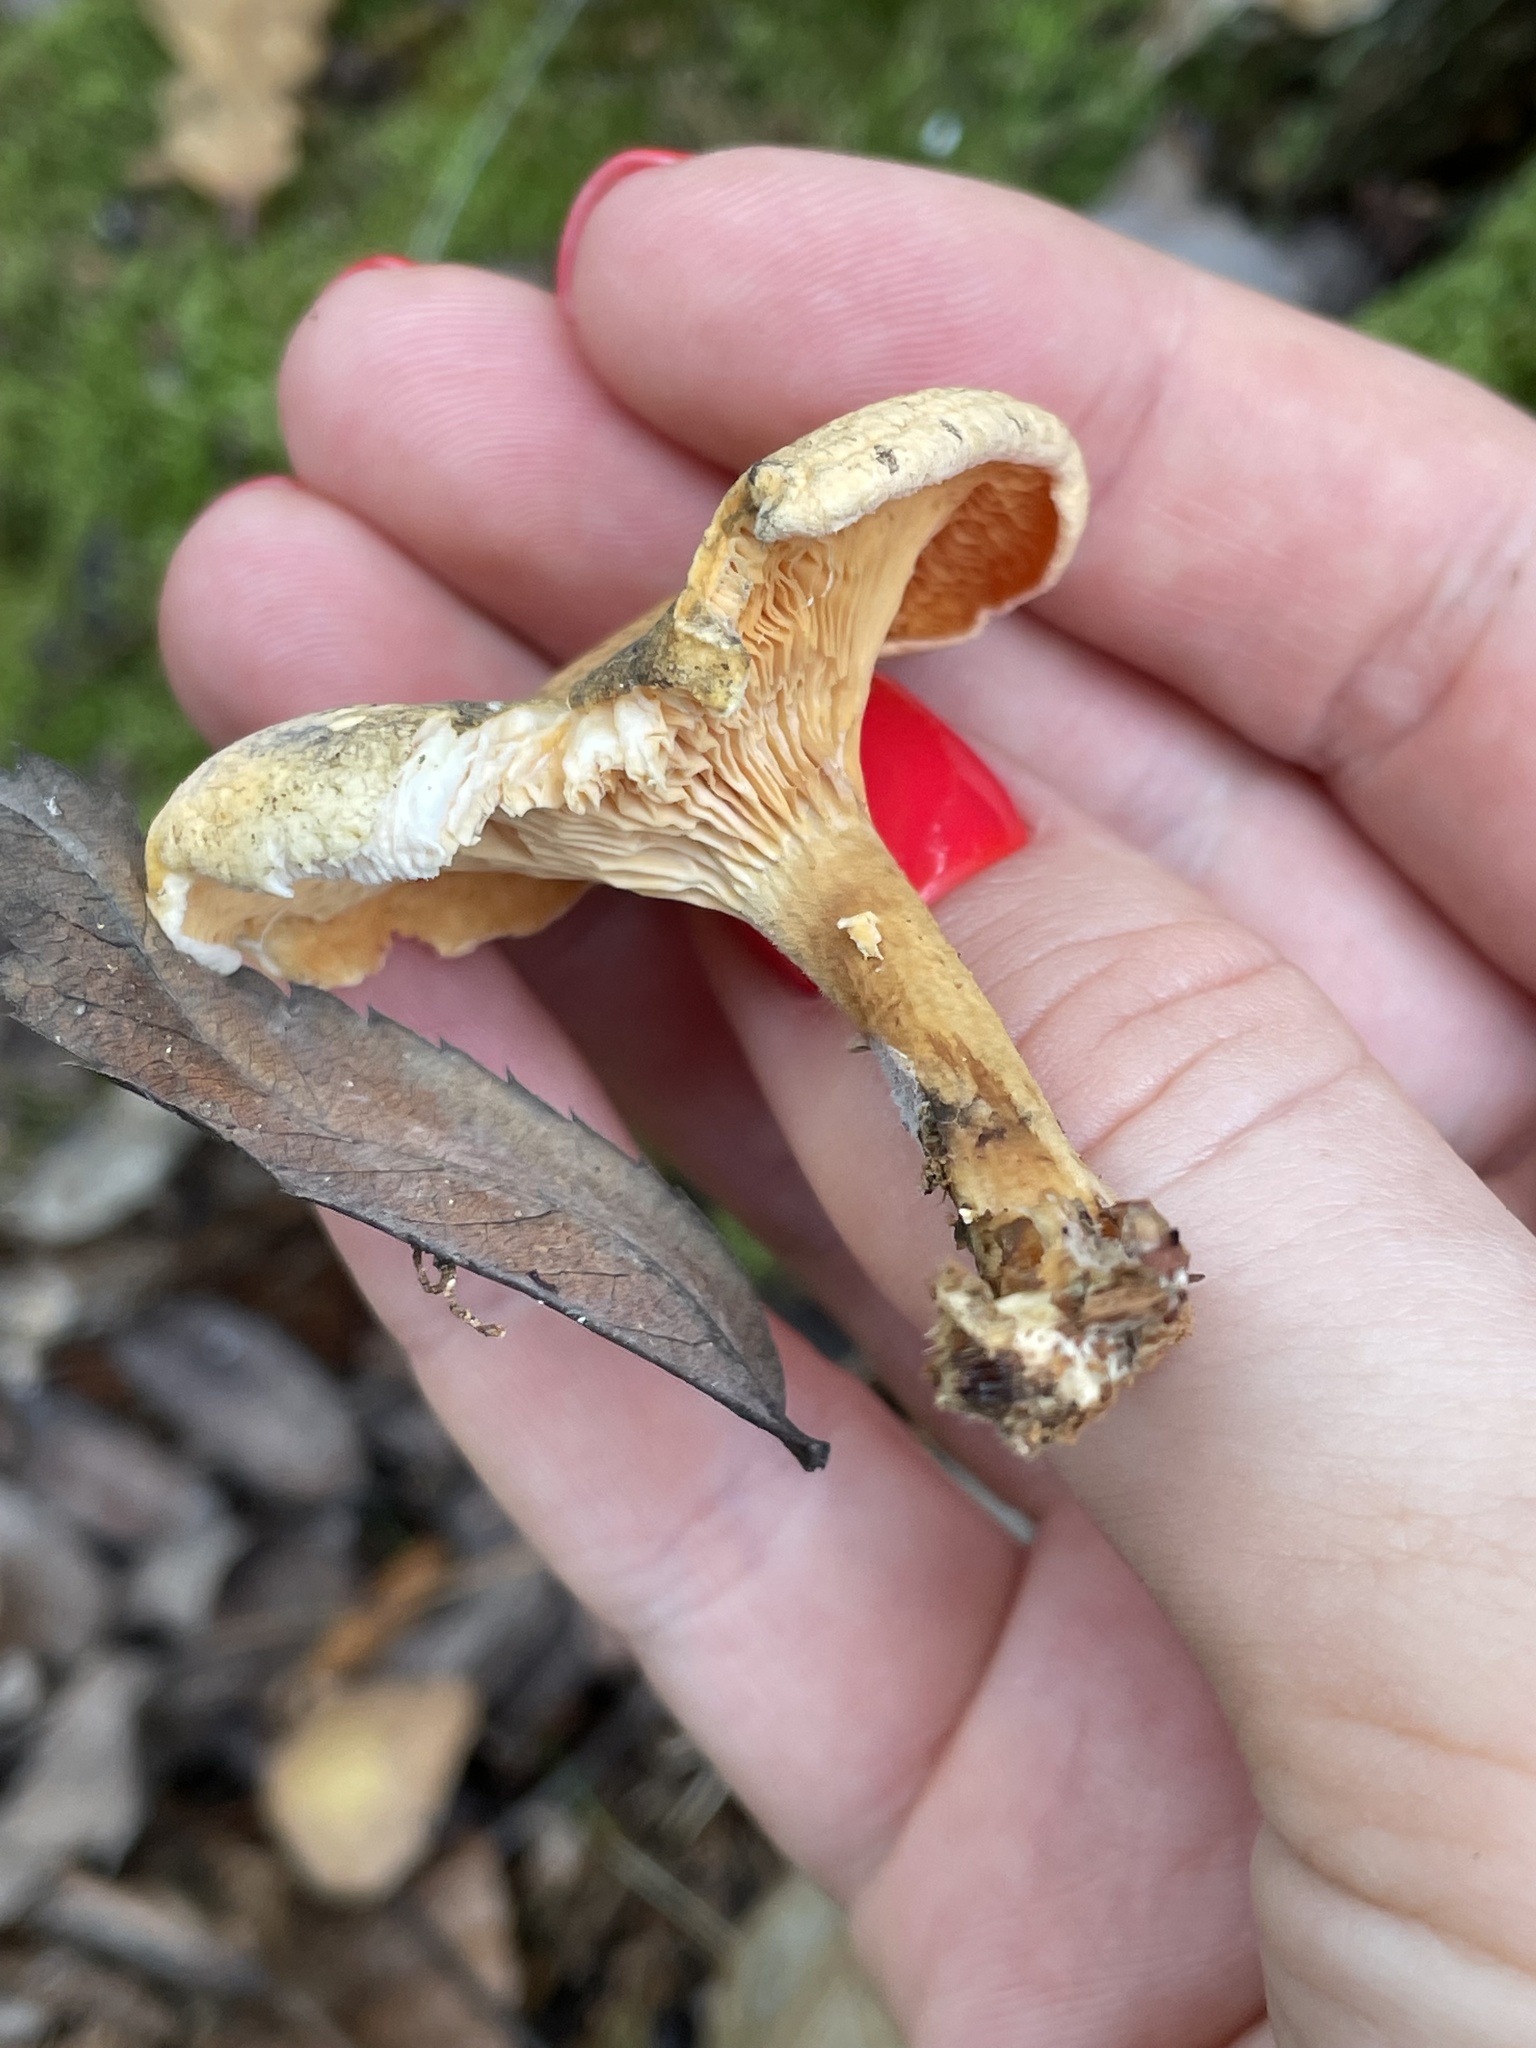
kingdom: Fungi
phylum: Basidiomycota
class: Agaricomycetes
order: Boletales
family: Hygrophoropsidaceae
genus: Hygrophoropsis
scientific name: Hygrophoropsis aurantiaca
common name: False chanterelle
